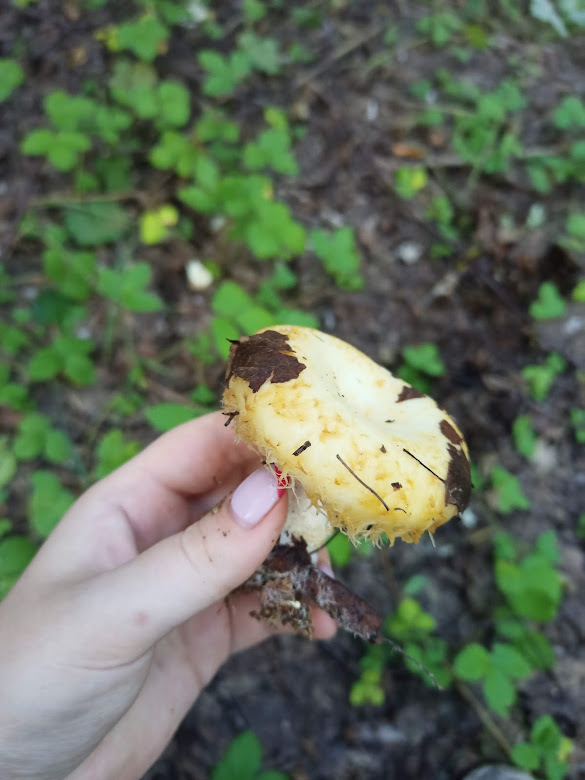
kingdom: Fungi
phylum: Basidiomycota
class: Agaricomycetes
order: Russulales
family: Russulaceae
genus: Lactarius
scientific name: Lactarius resimus
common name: Rollrim milkcap
